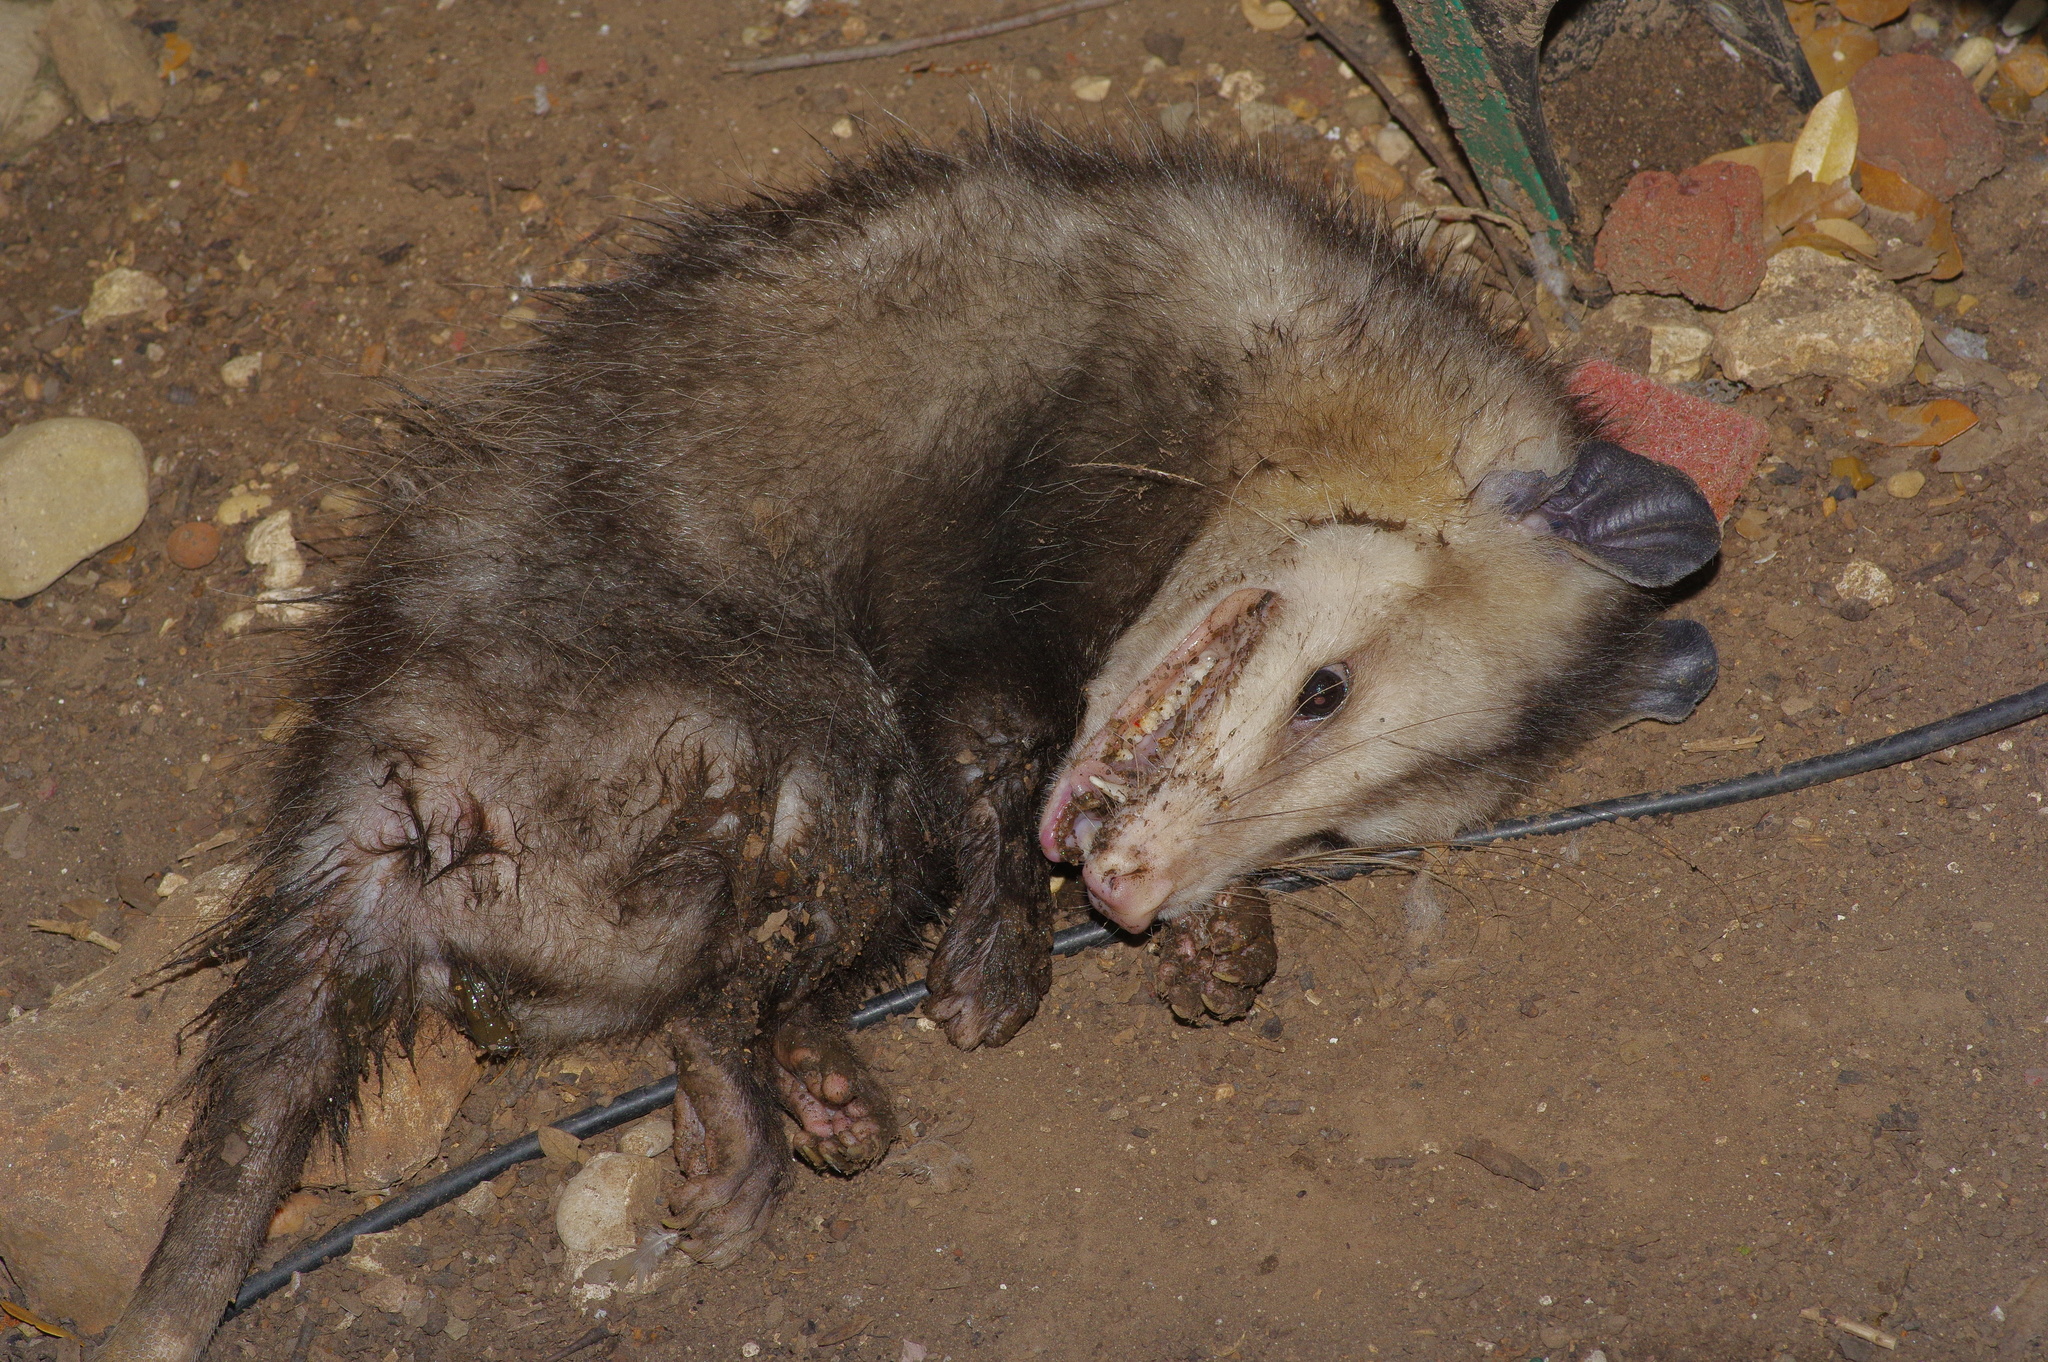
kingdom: Animalia
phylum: Chordata
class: Mammalia
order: Didelphimorphia
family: Didelphidae
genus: Didelphis
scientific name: Didelphis virginiana
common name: Virginia opossum
